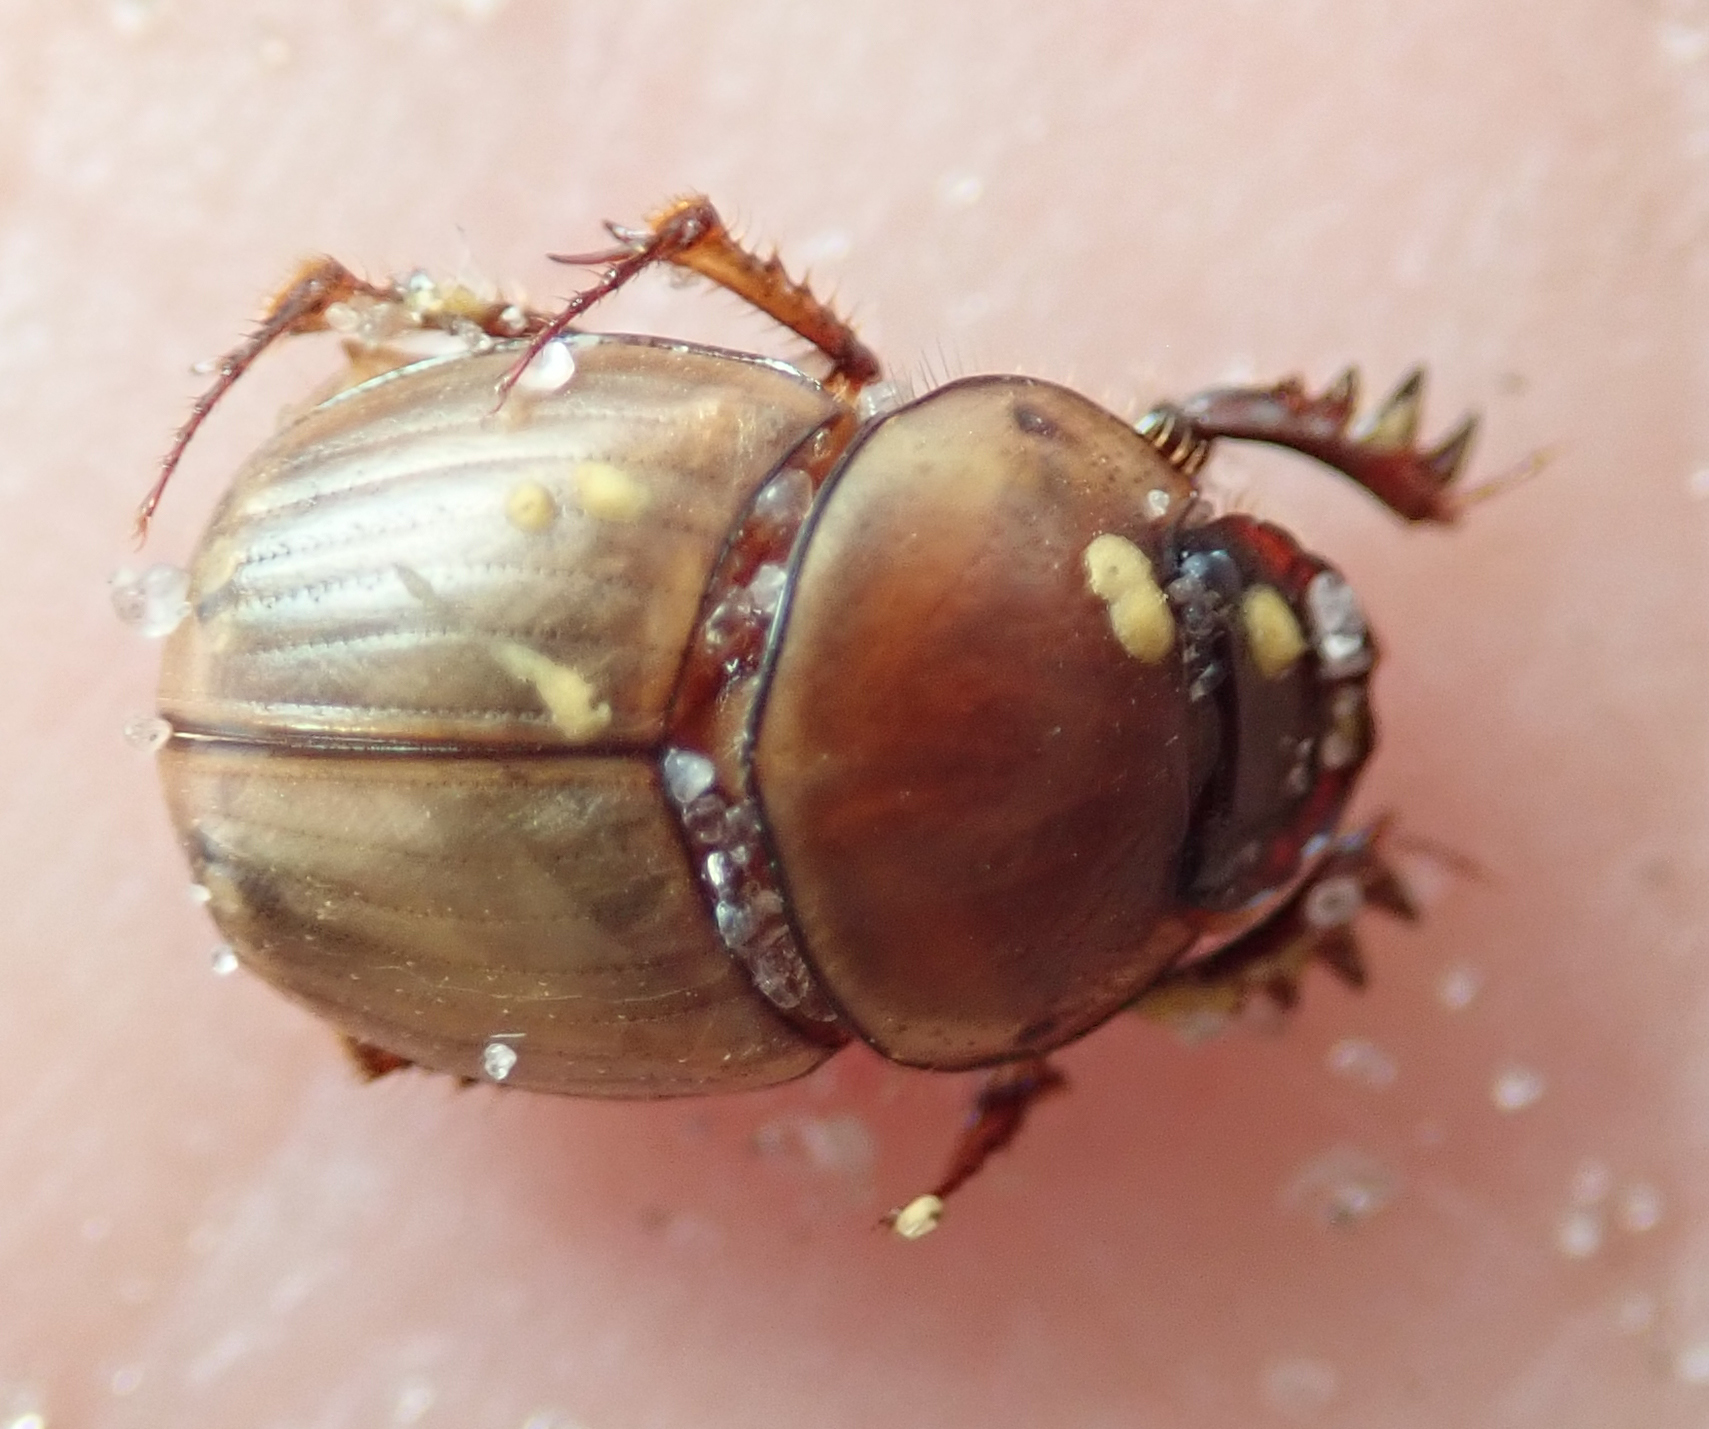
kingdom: Animalia
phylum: Arthropoda
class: Insecta
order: Coleoptera
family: Scarabaeidae
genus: Digitonthophagus
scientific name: Digitonthophagus gazella
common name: Brown dung beetle
